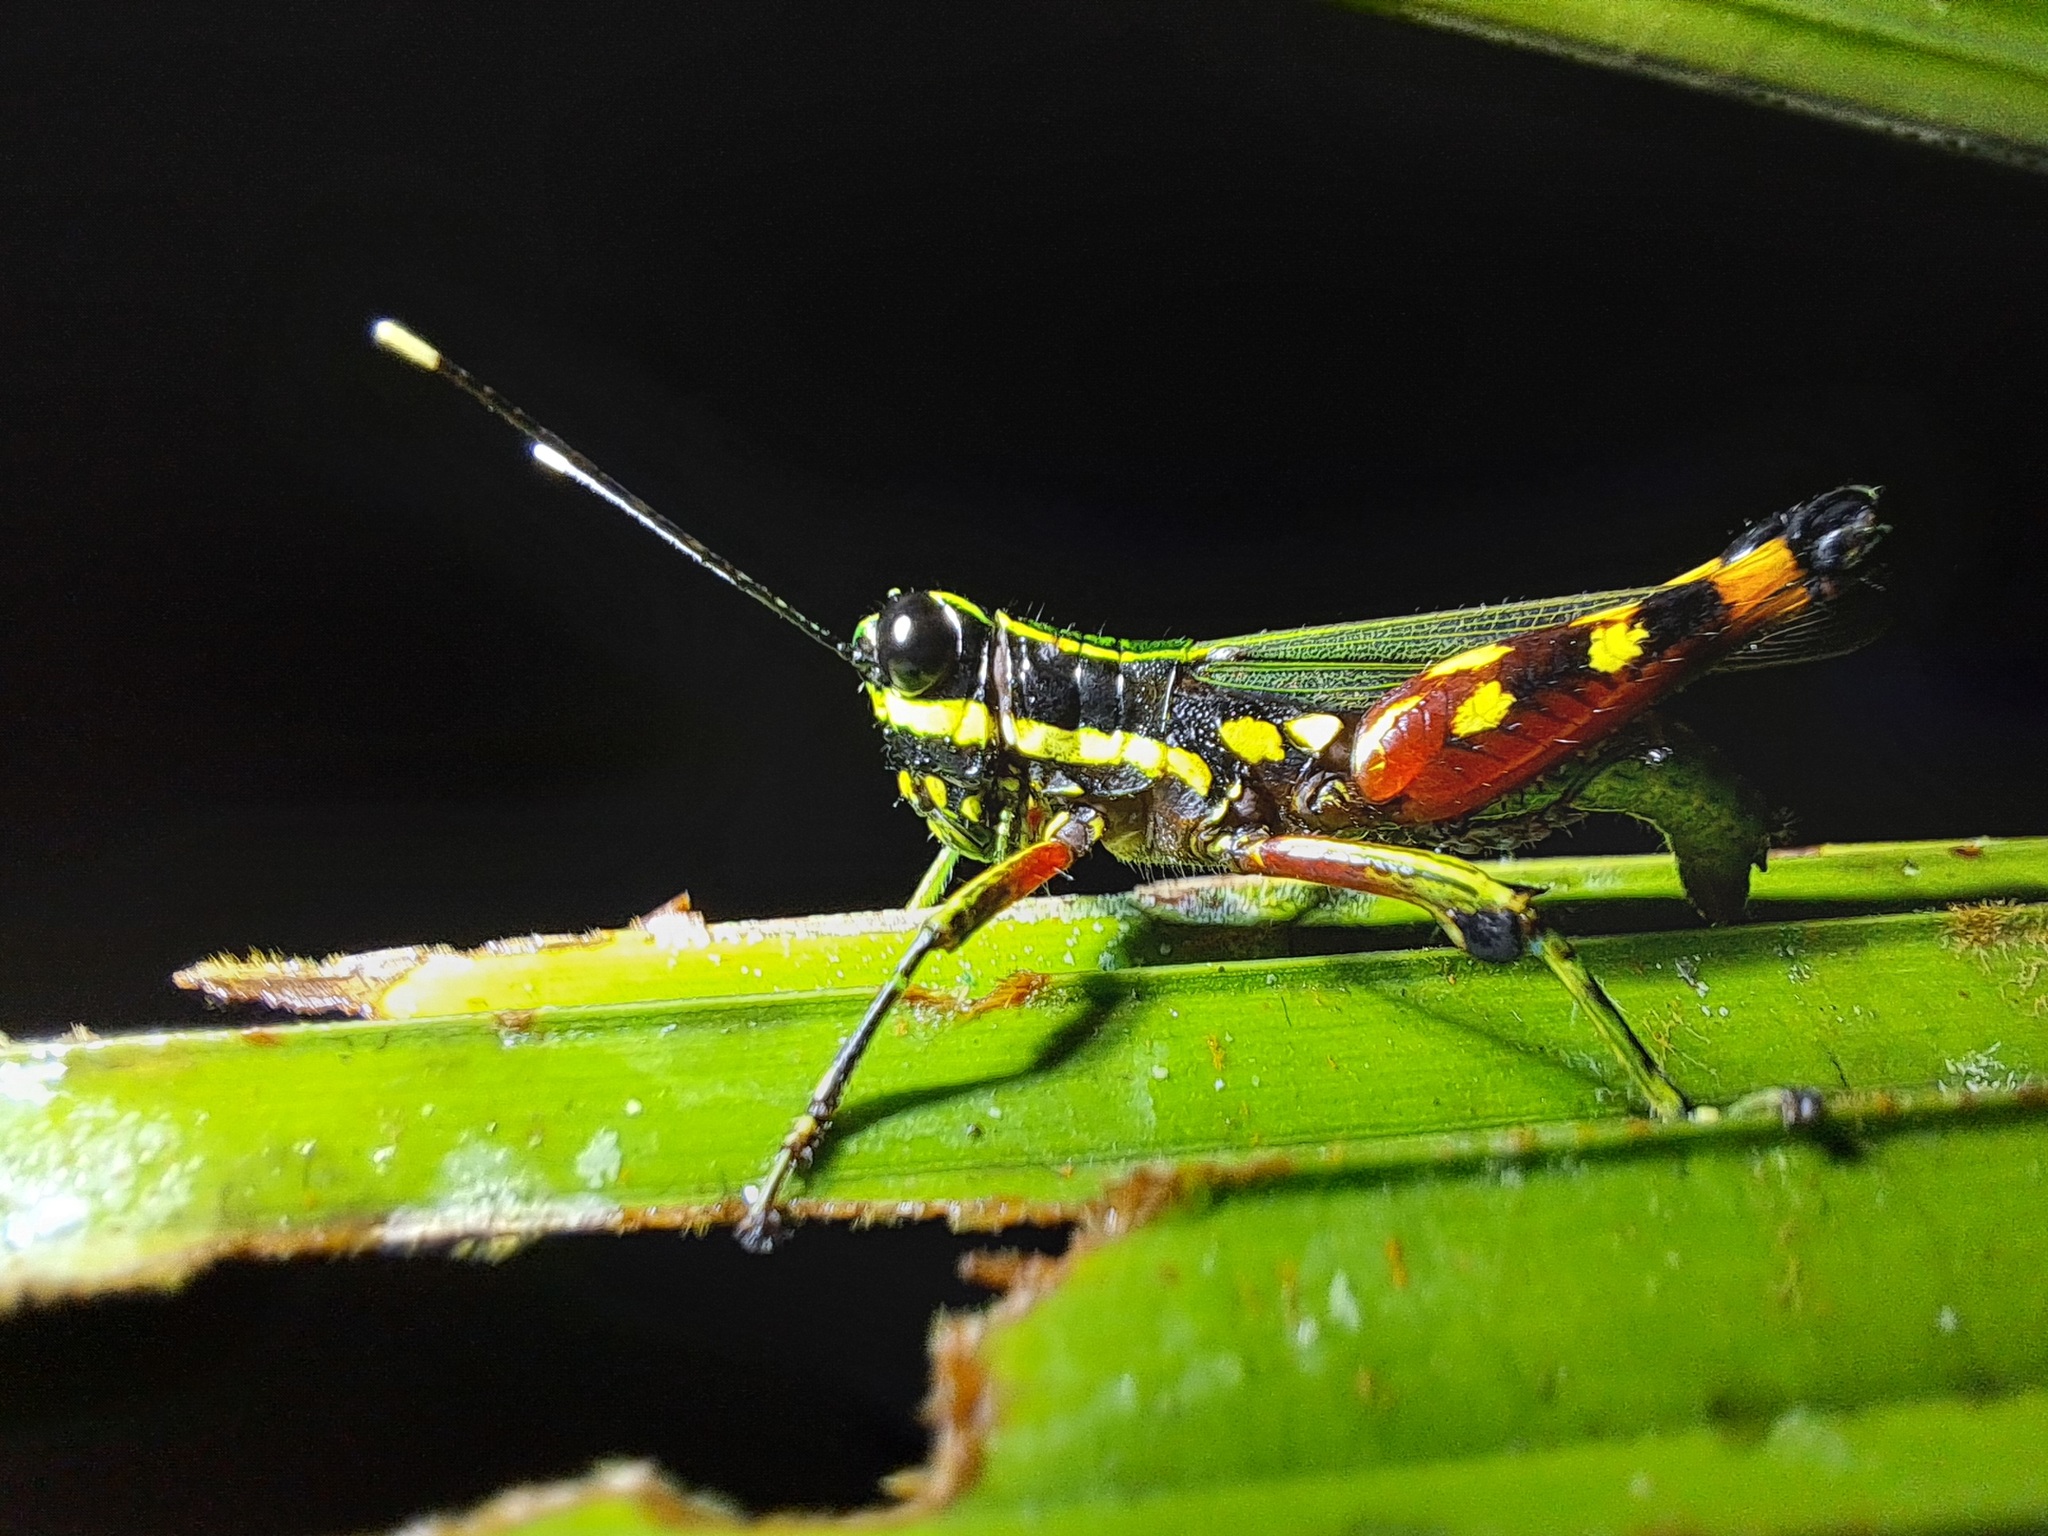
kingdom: Animalia
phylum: Arthropoda
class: Insecta
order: Orthoptera
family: Acrididae
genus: Tetrataenia
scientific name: Tetrataenia surinama
